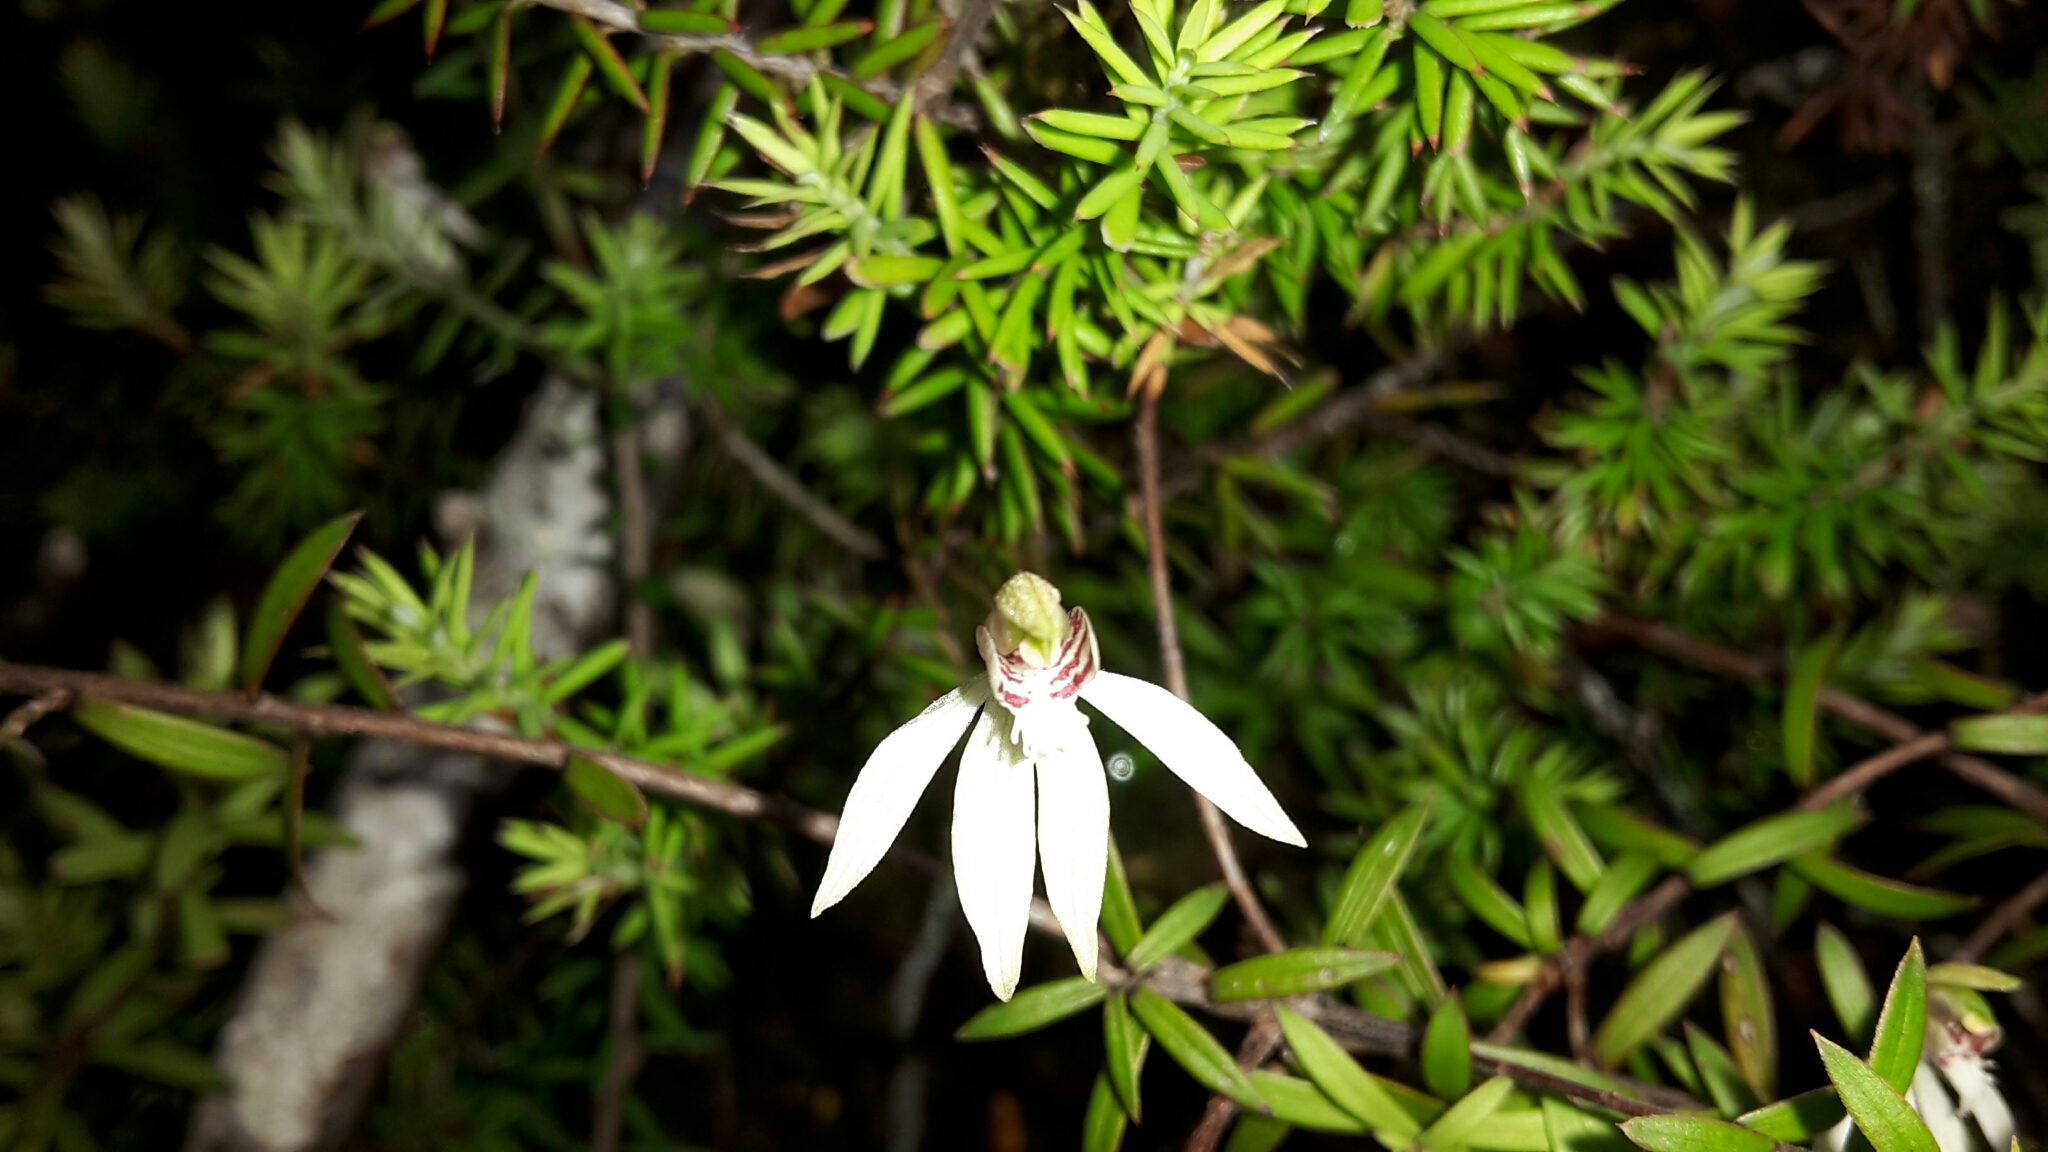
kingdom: Plantae
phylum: Tracheophyta
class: Liliopsida
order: Asparagales
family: Orchidaceae
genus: Caladenia
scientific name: Caladenia chlorostyla
